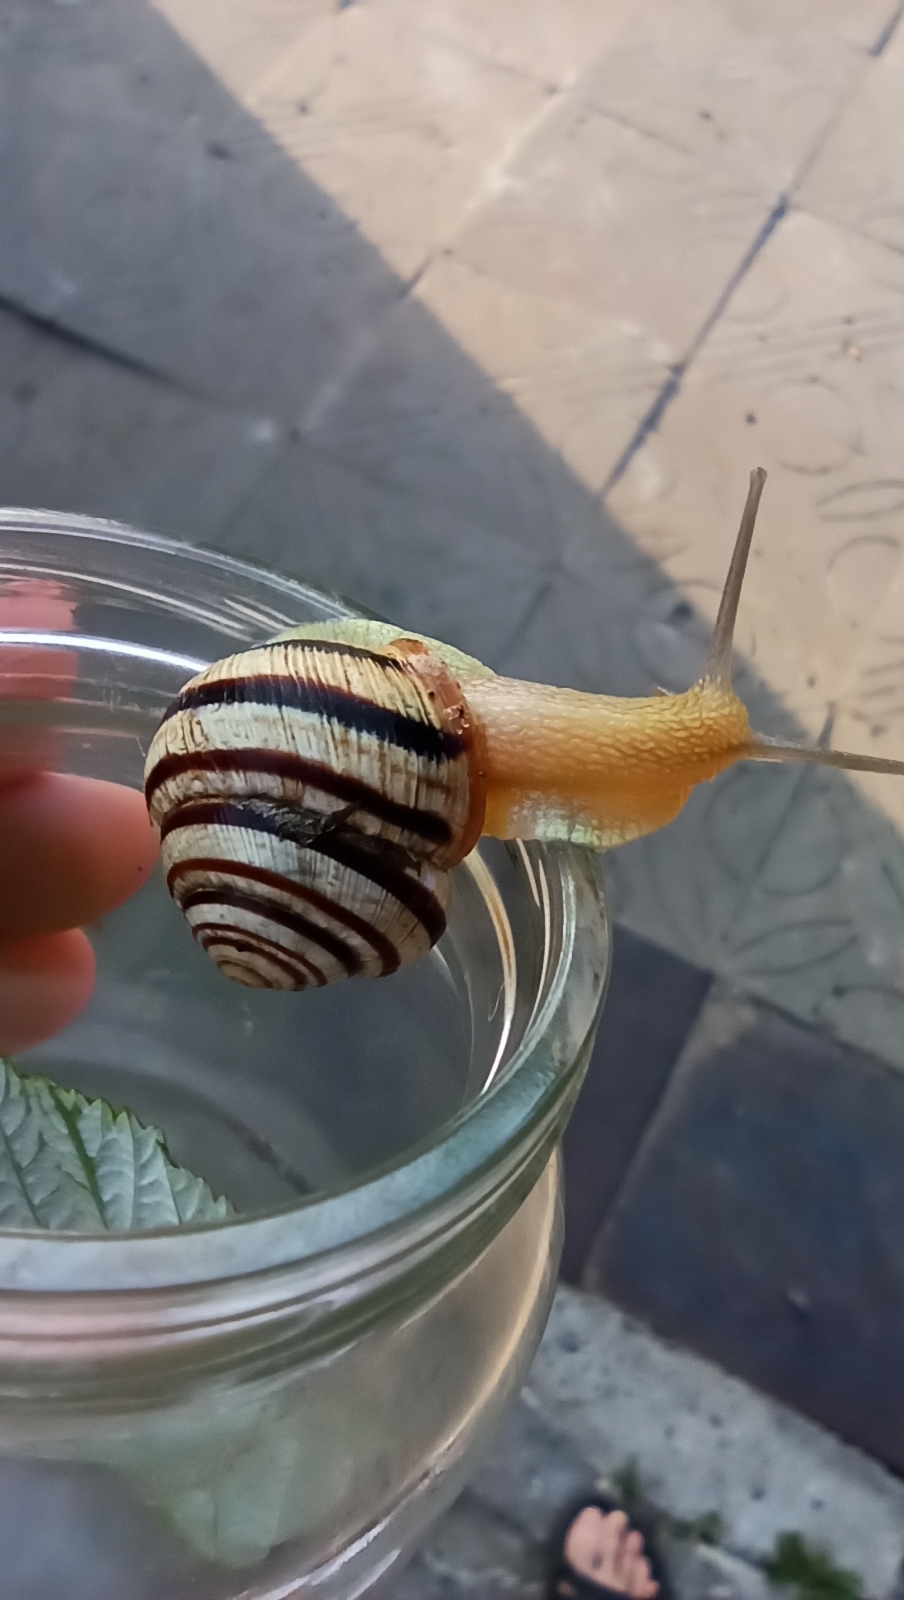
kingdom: Animalia
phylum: Mollusca
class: Gastropoda
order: Stylommatophora
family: Helicidae
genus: Caucasotachea
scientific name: Caucasotachea vindobonensis
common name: European helicid land snail
